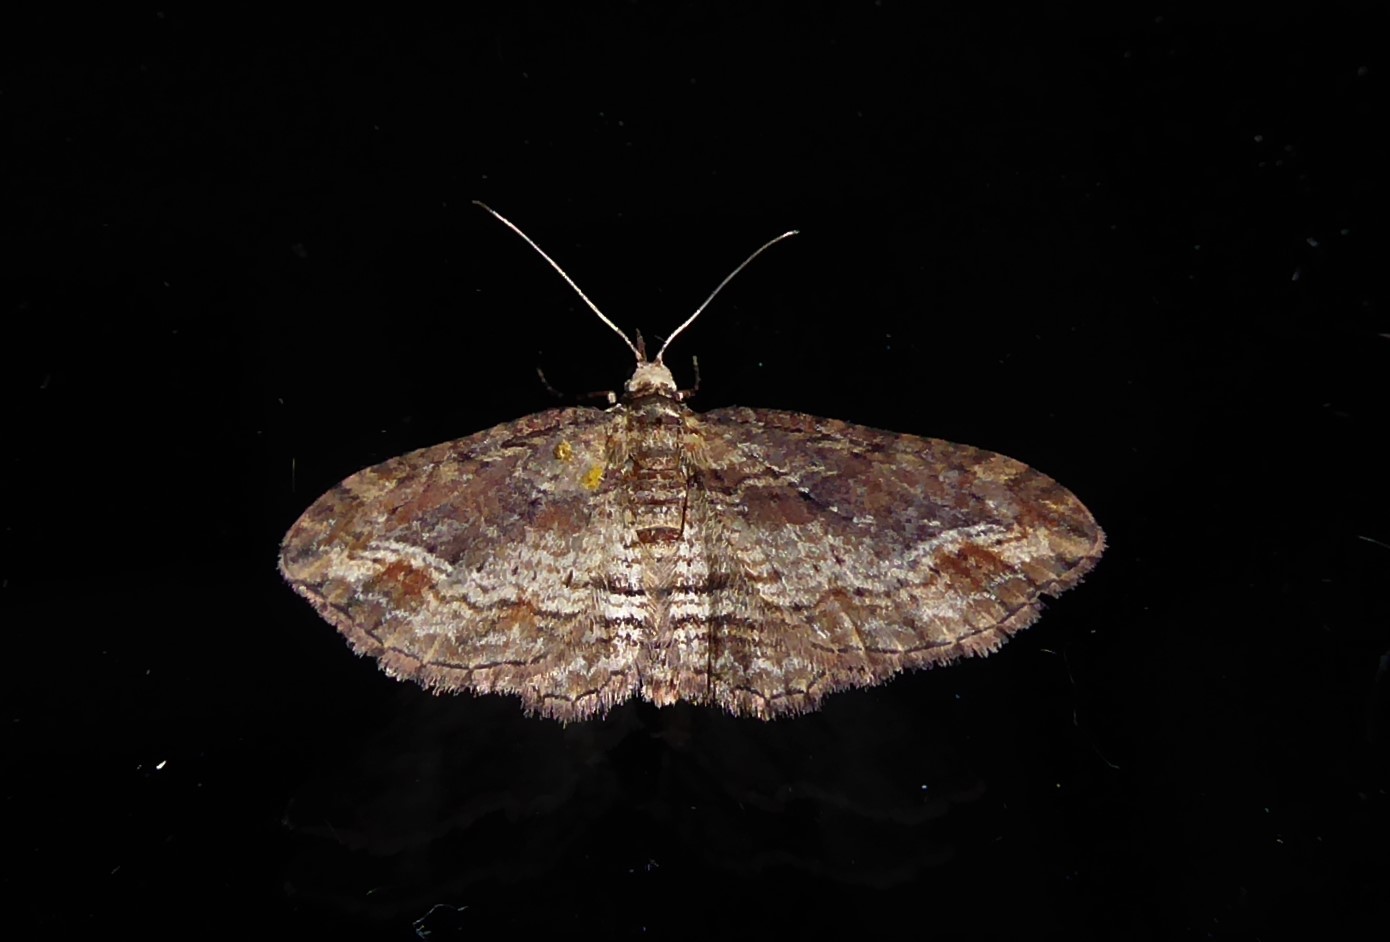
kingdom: Animalia
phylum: Arthropoda
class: Insecta
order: Lepidoptera
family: Geometridae
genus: Chloroclystis
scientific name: Chloroclystis filata
